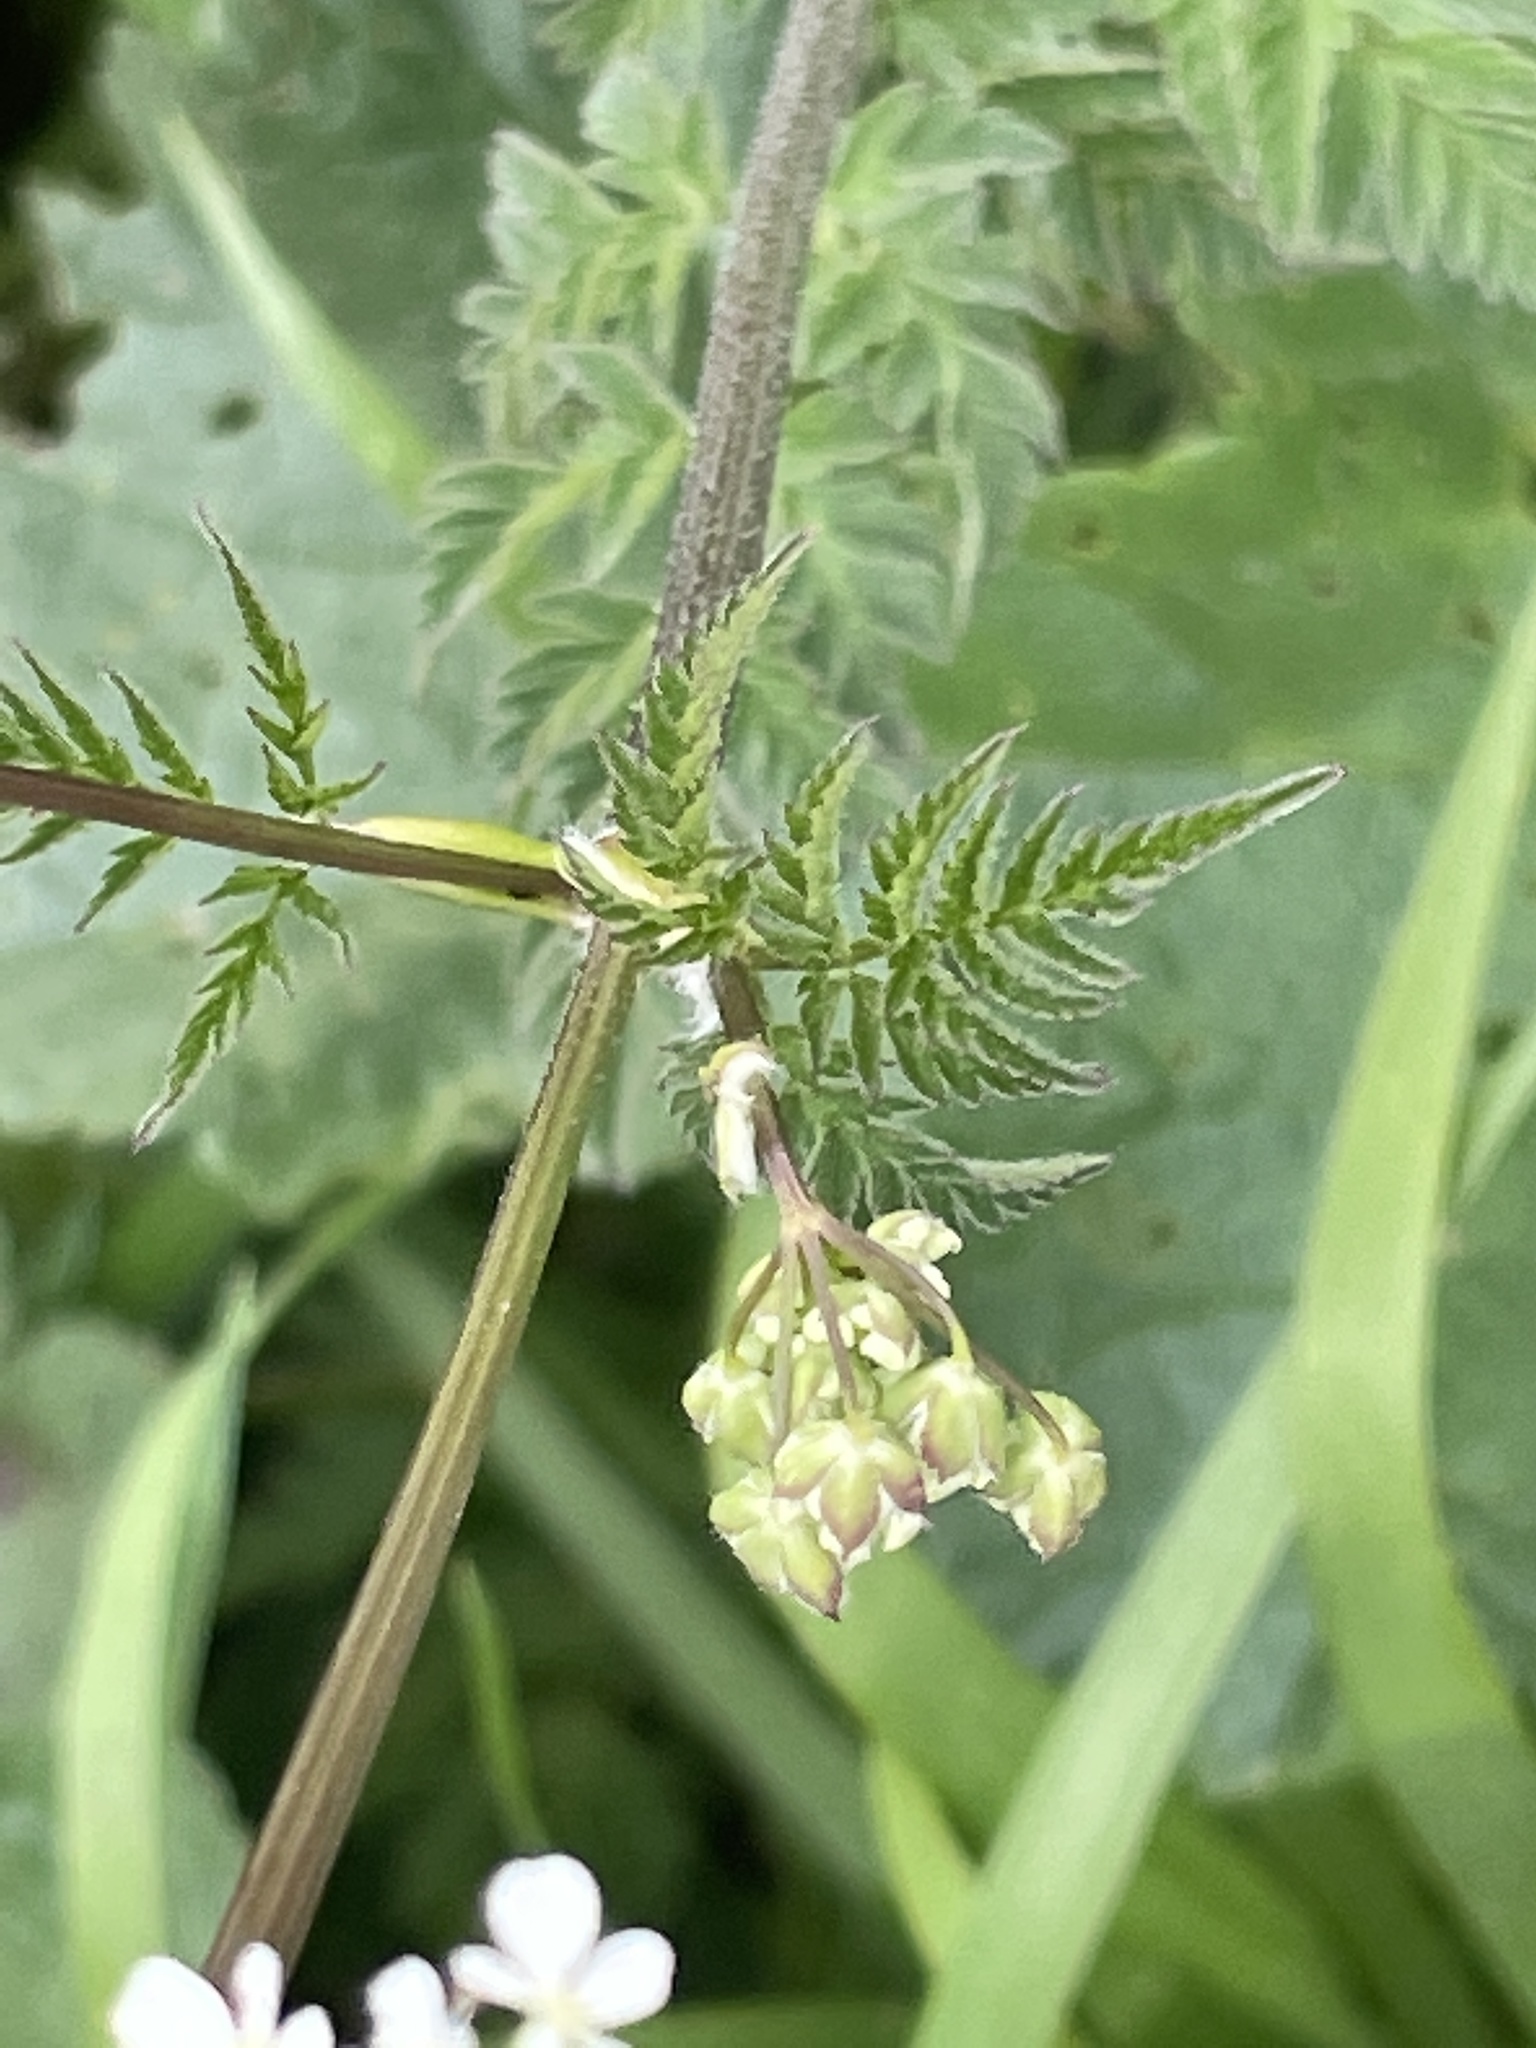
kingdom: Plantae
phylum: Tracheophyta
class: Magnoliopsida
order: Apiales
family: Apiaceae
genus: Anthriscus
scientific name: Anthriscus sylvestris
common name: Cow parsley
